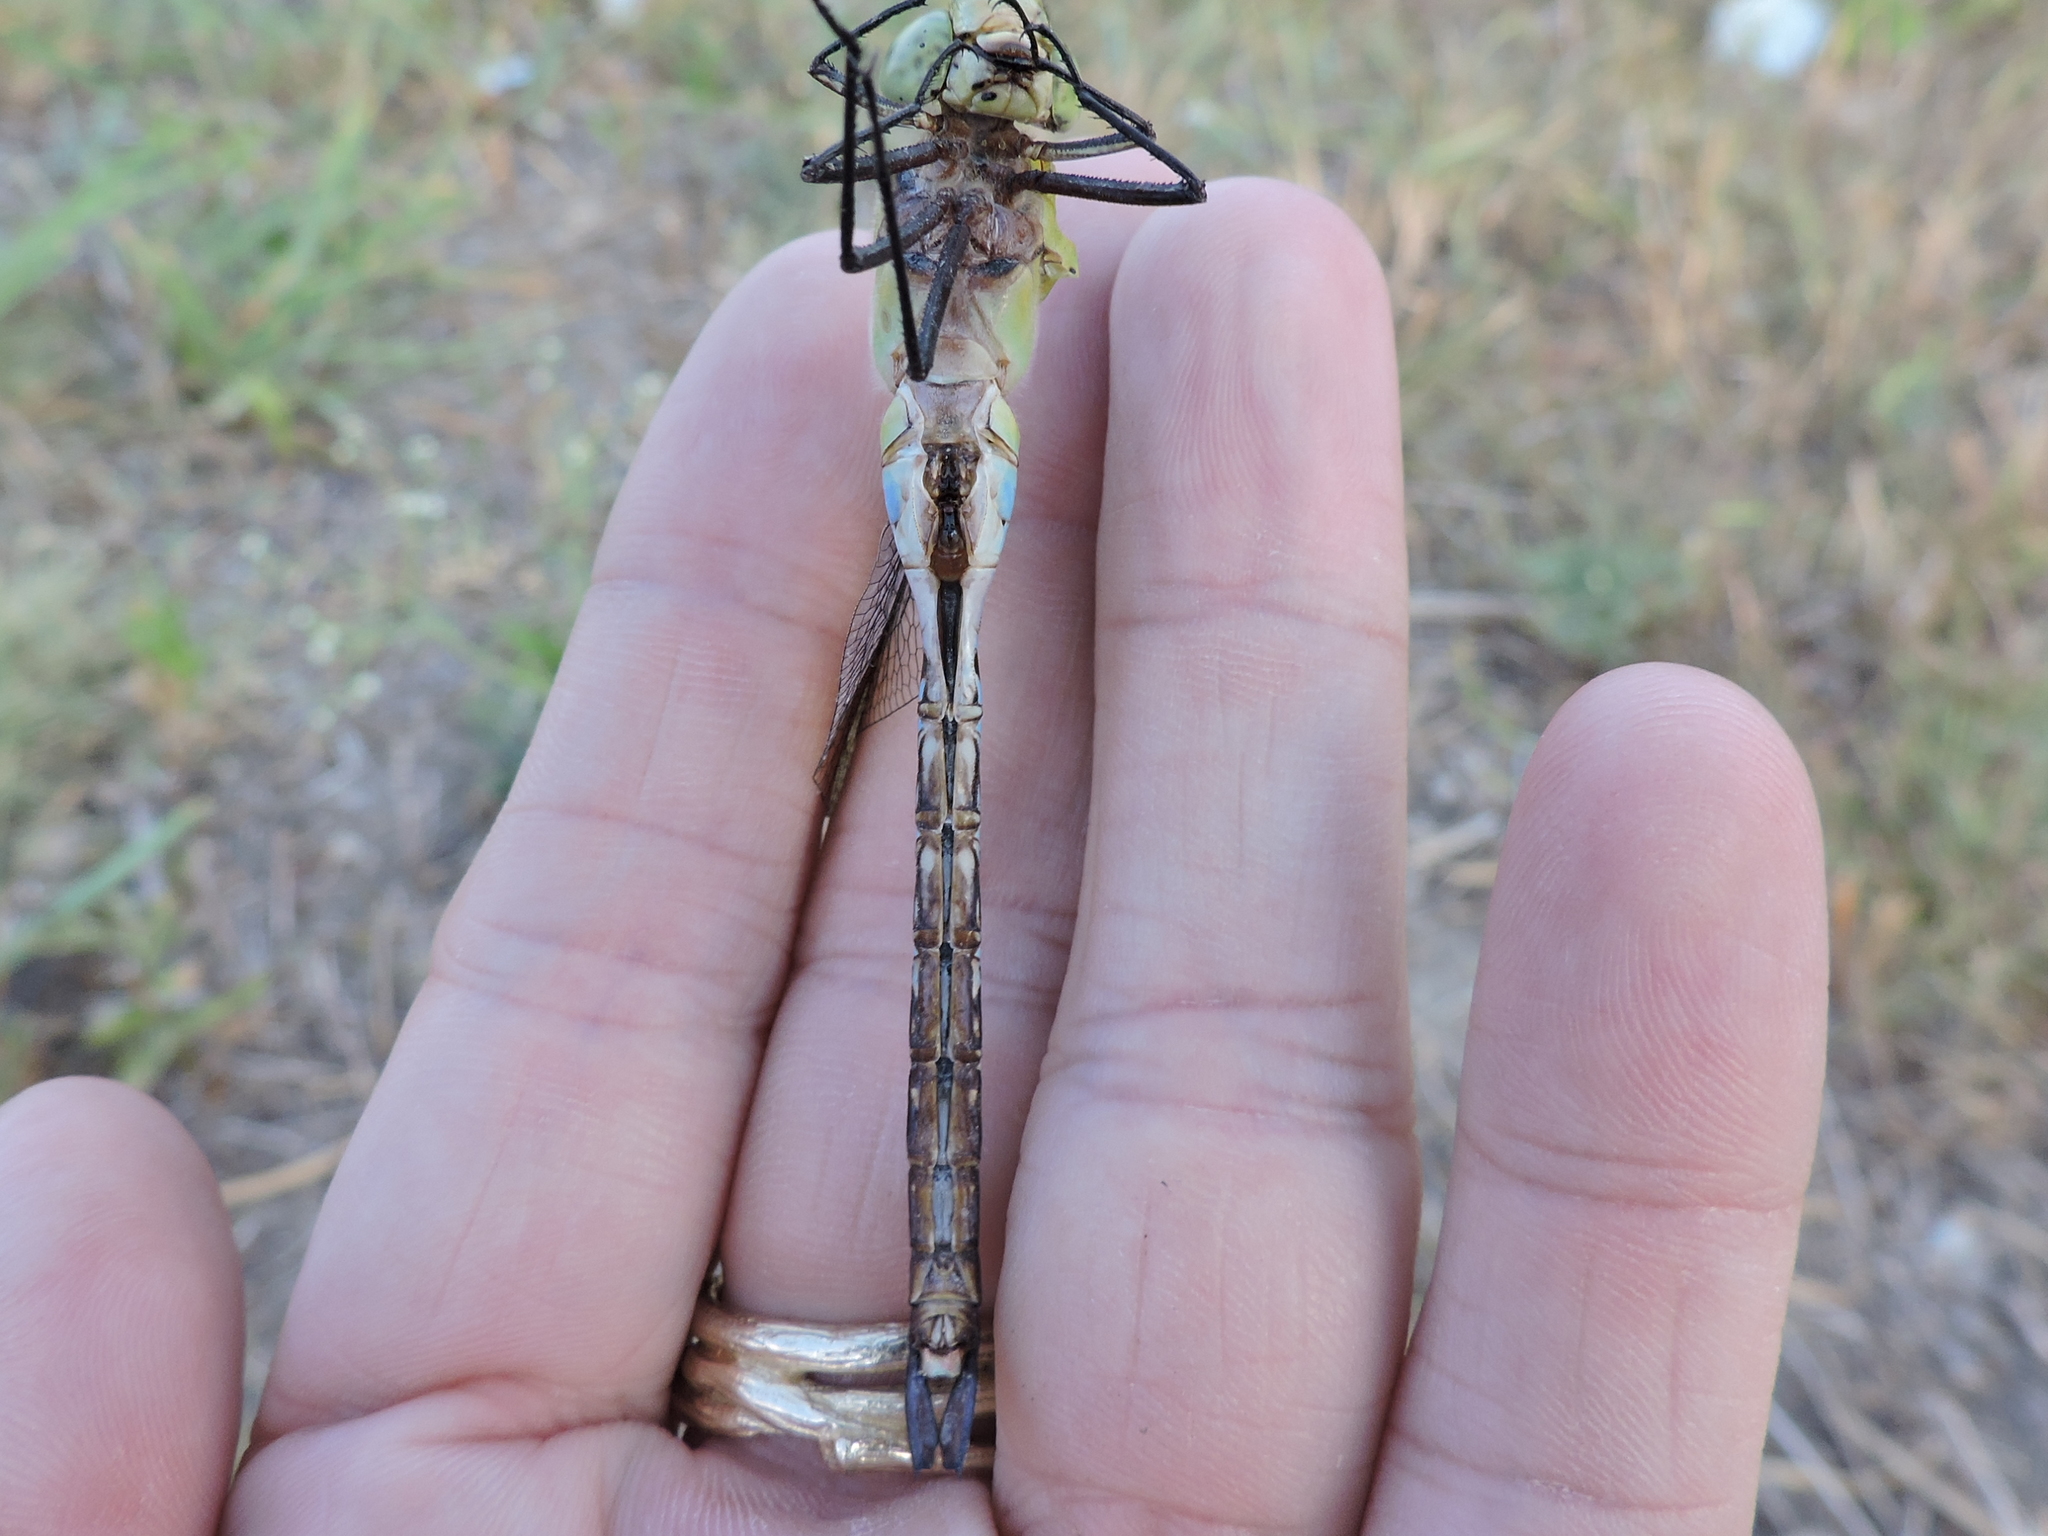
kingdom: Animalia
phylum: Arthropoda
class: Insecta
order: Odonata
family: Aeshnidae
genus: Anax
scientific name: Anax junius
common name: Common green darner
